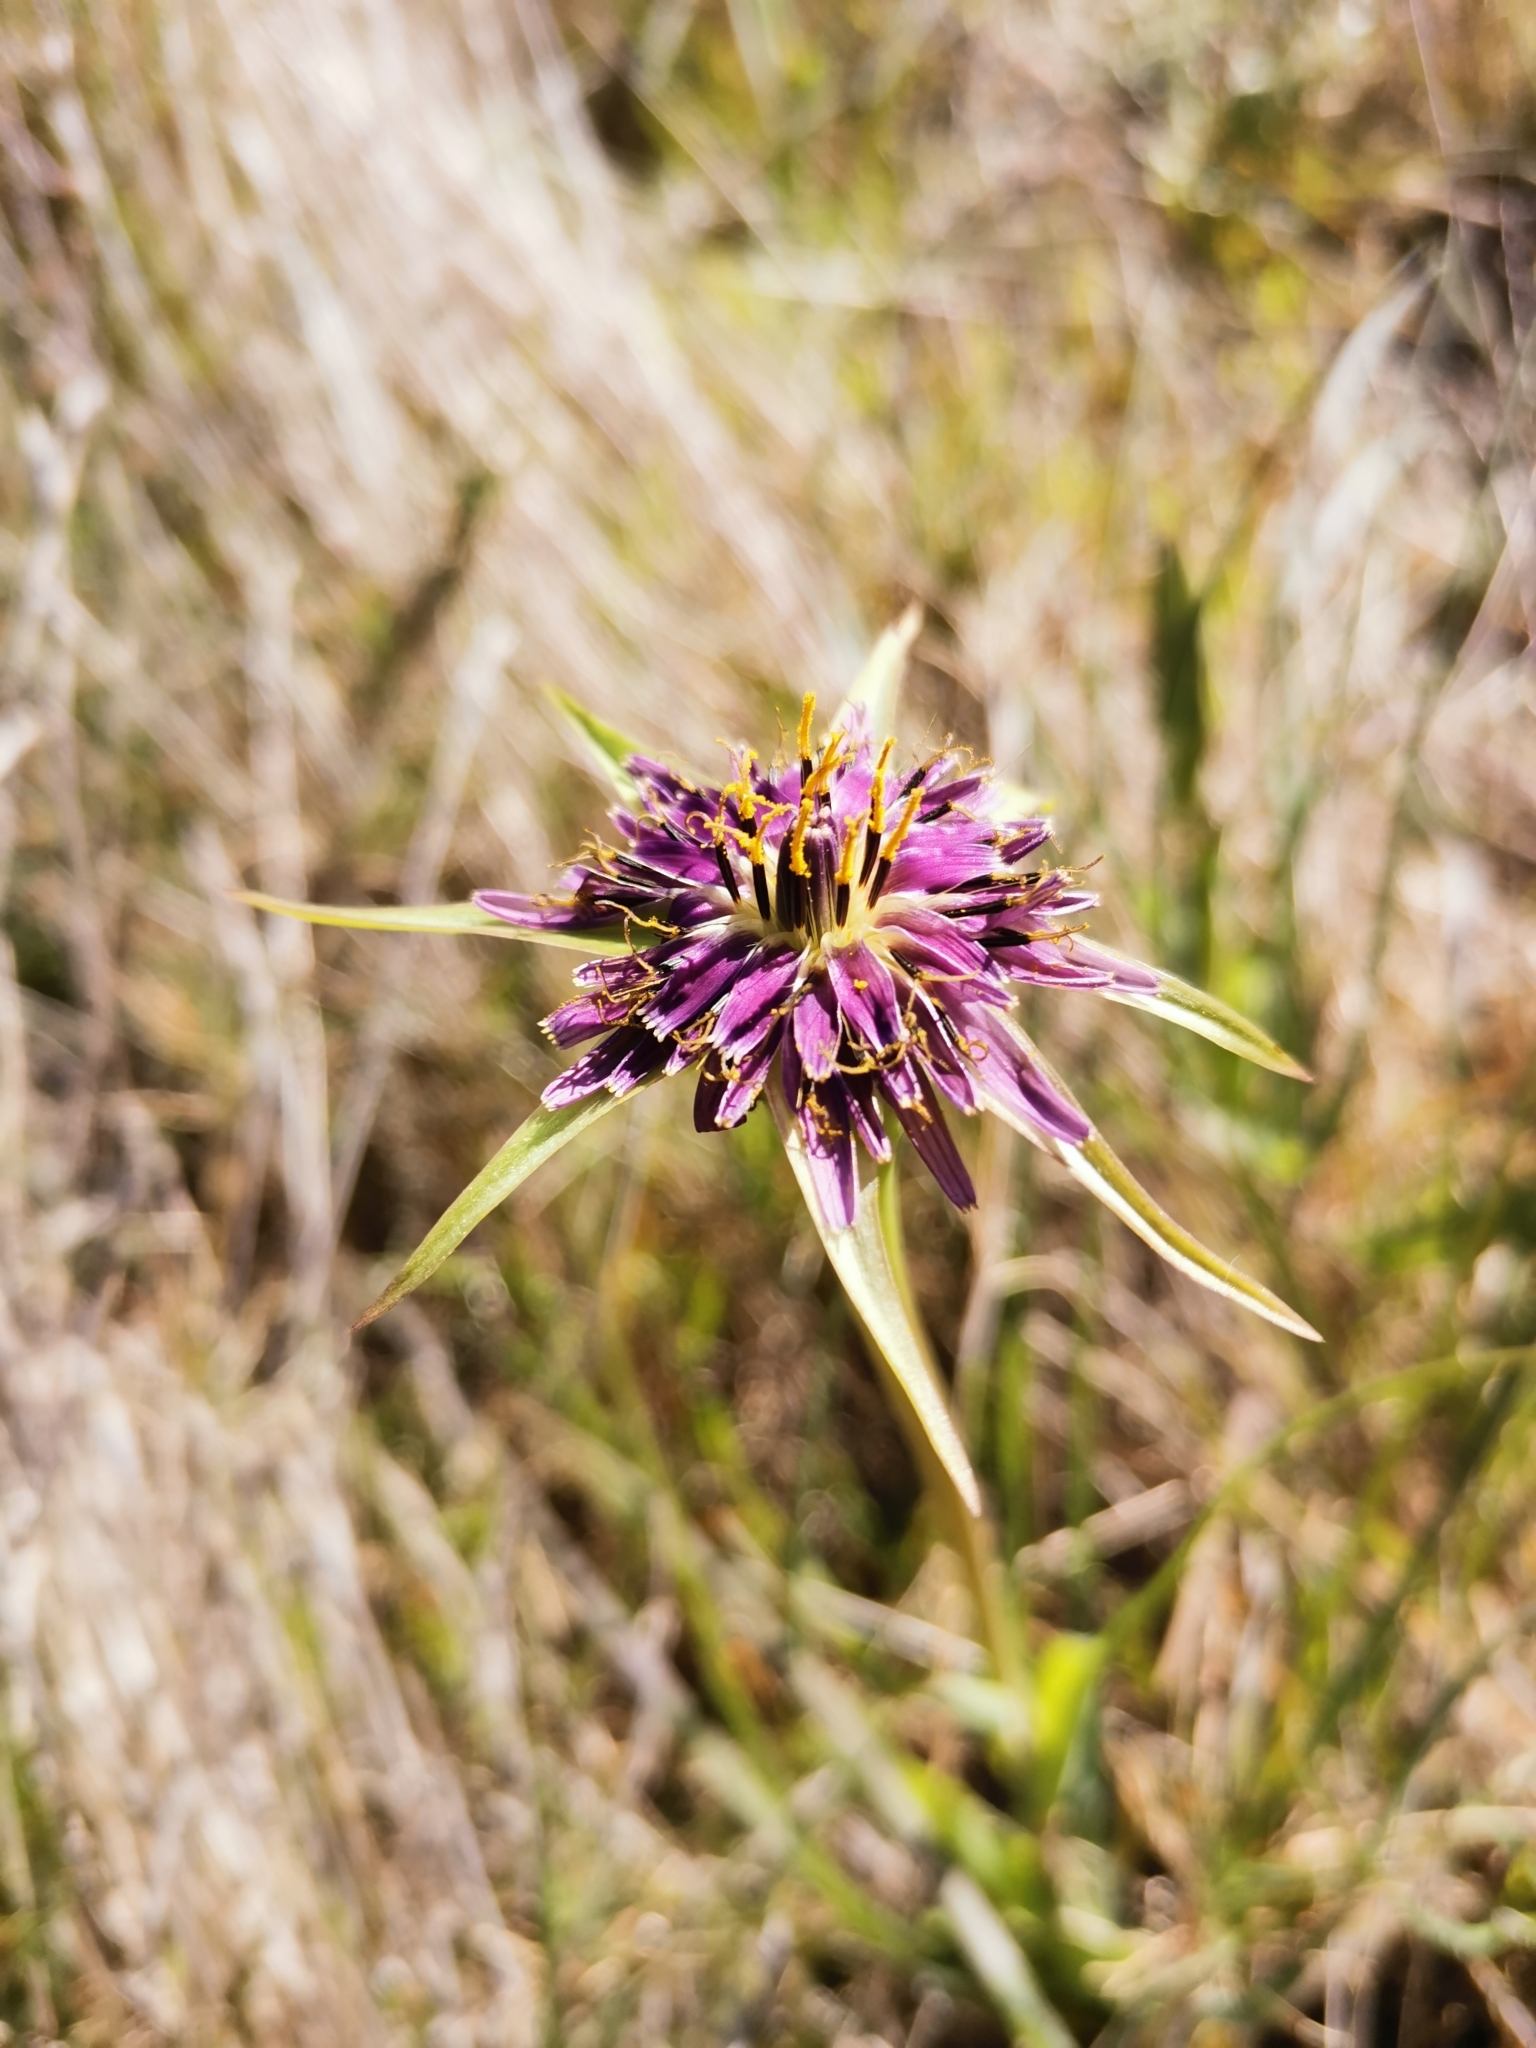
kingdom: Plantae
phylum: Tracheophyta
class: Magnoliopsida
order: Asterales
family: Asteraceae
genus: Tragopogon
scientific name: Tragopogon porrifolius
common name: Salsify
